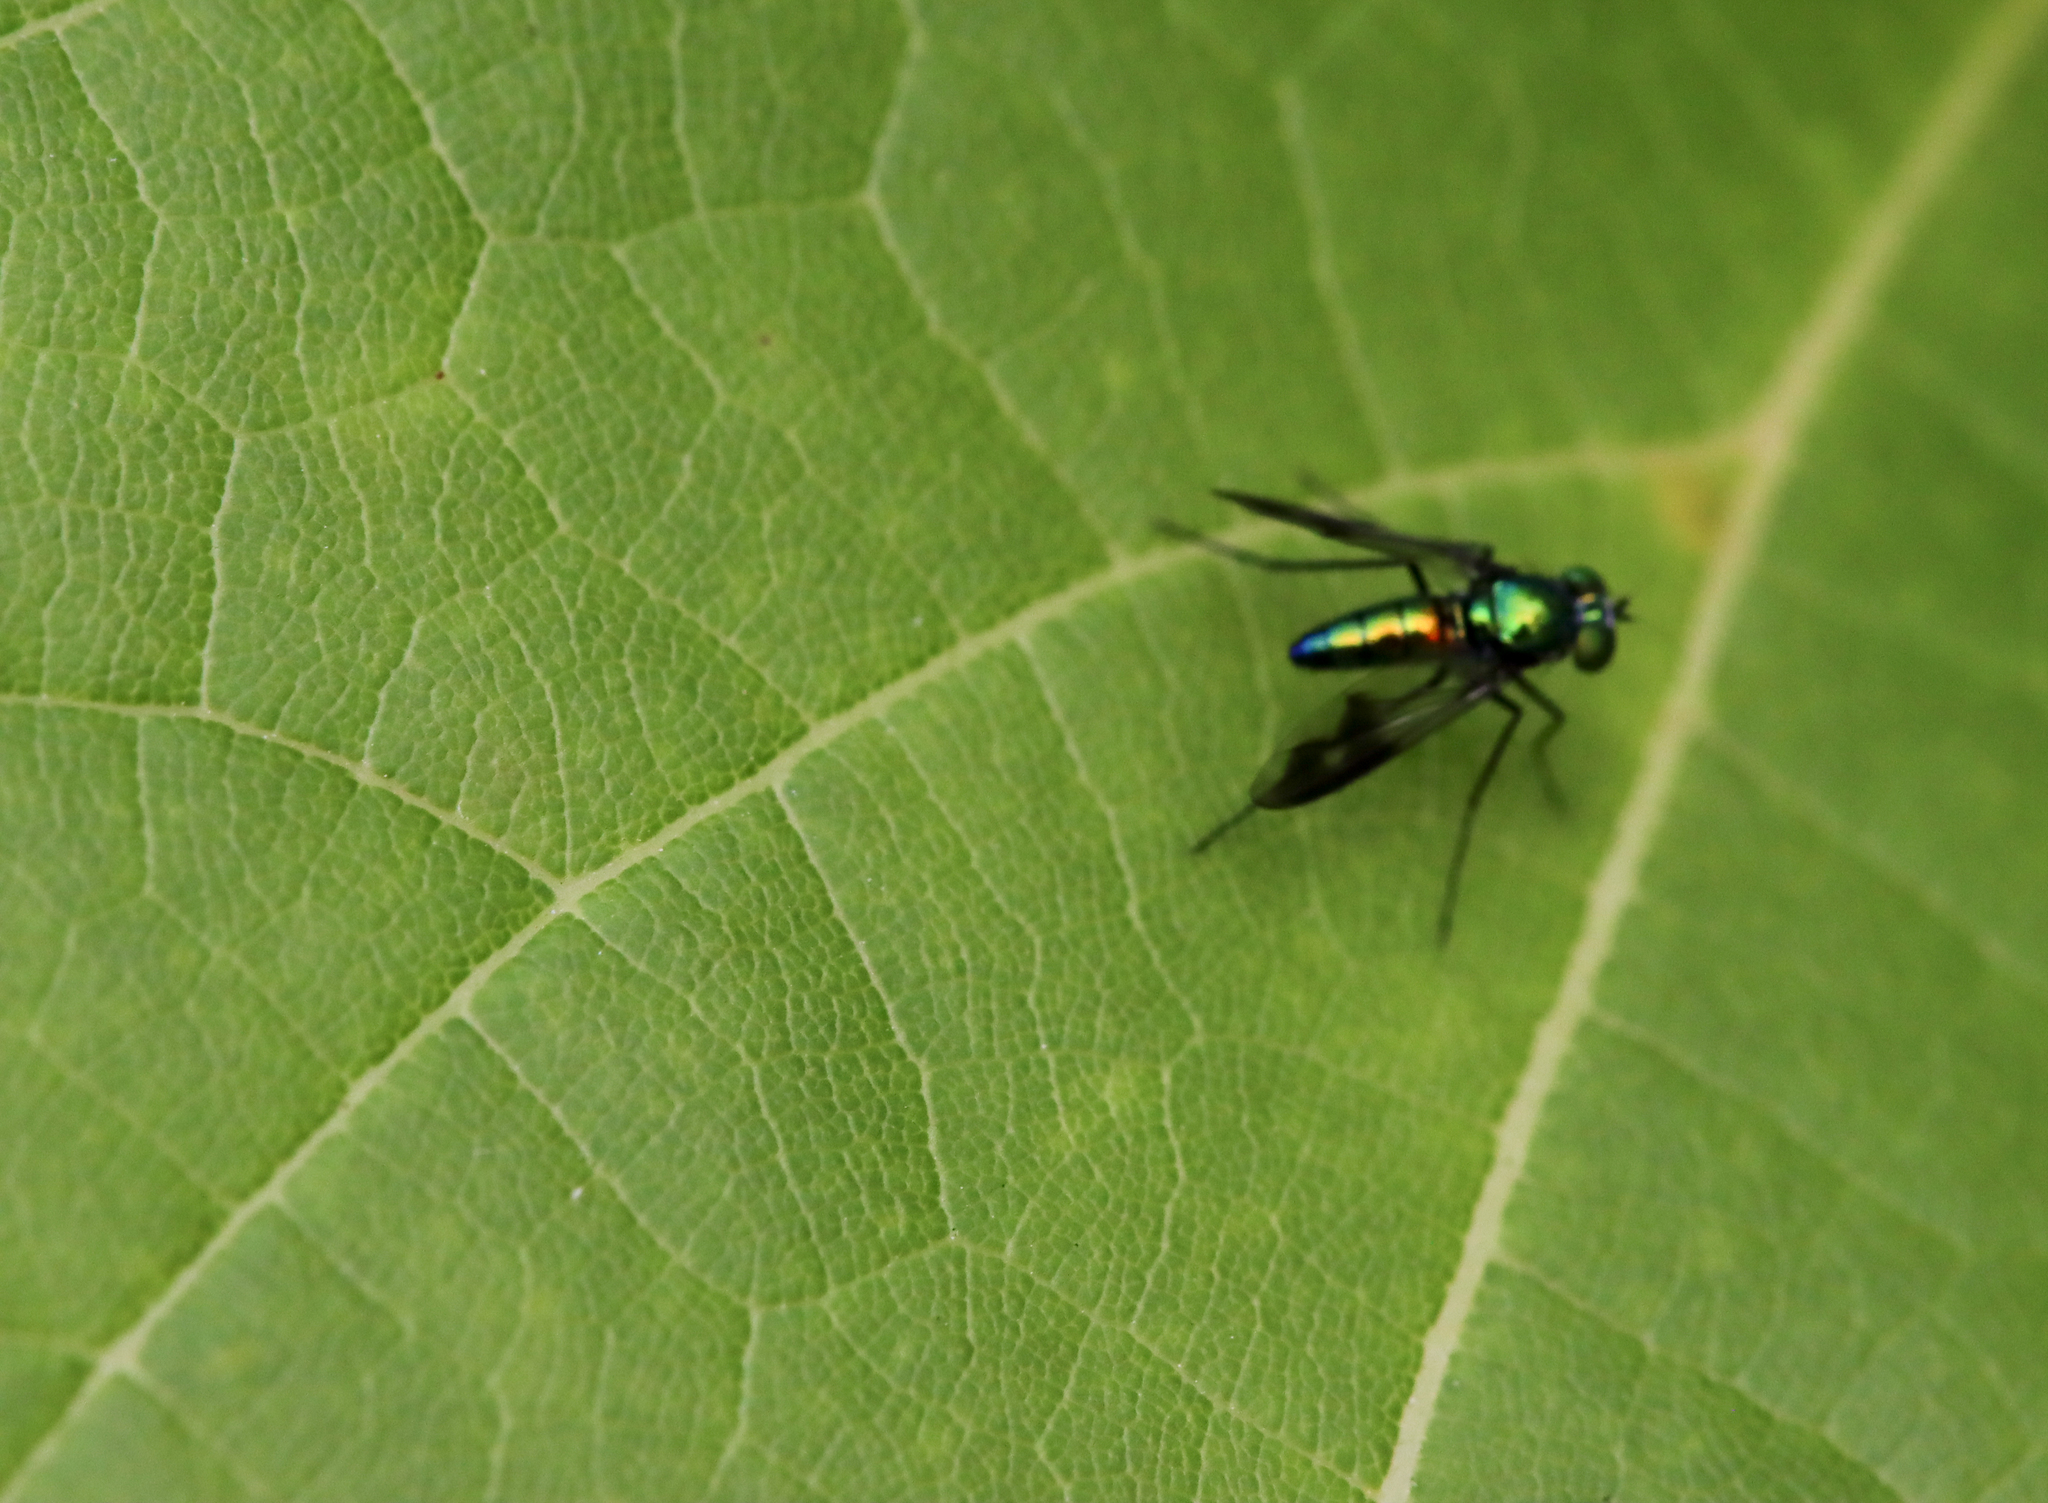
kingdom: Animalia
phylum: Arthropoda
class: Insecta
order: Diptera
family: Dolichopodidae
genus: Condylostylus
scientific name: Condylostylus patibulatus
